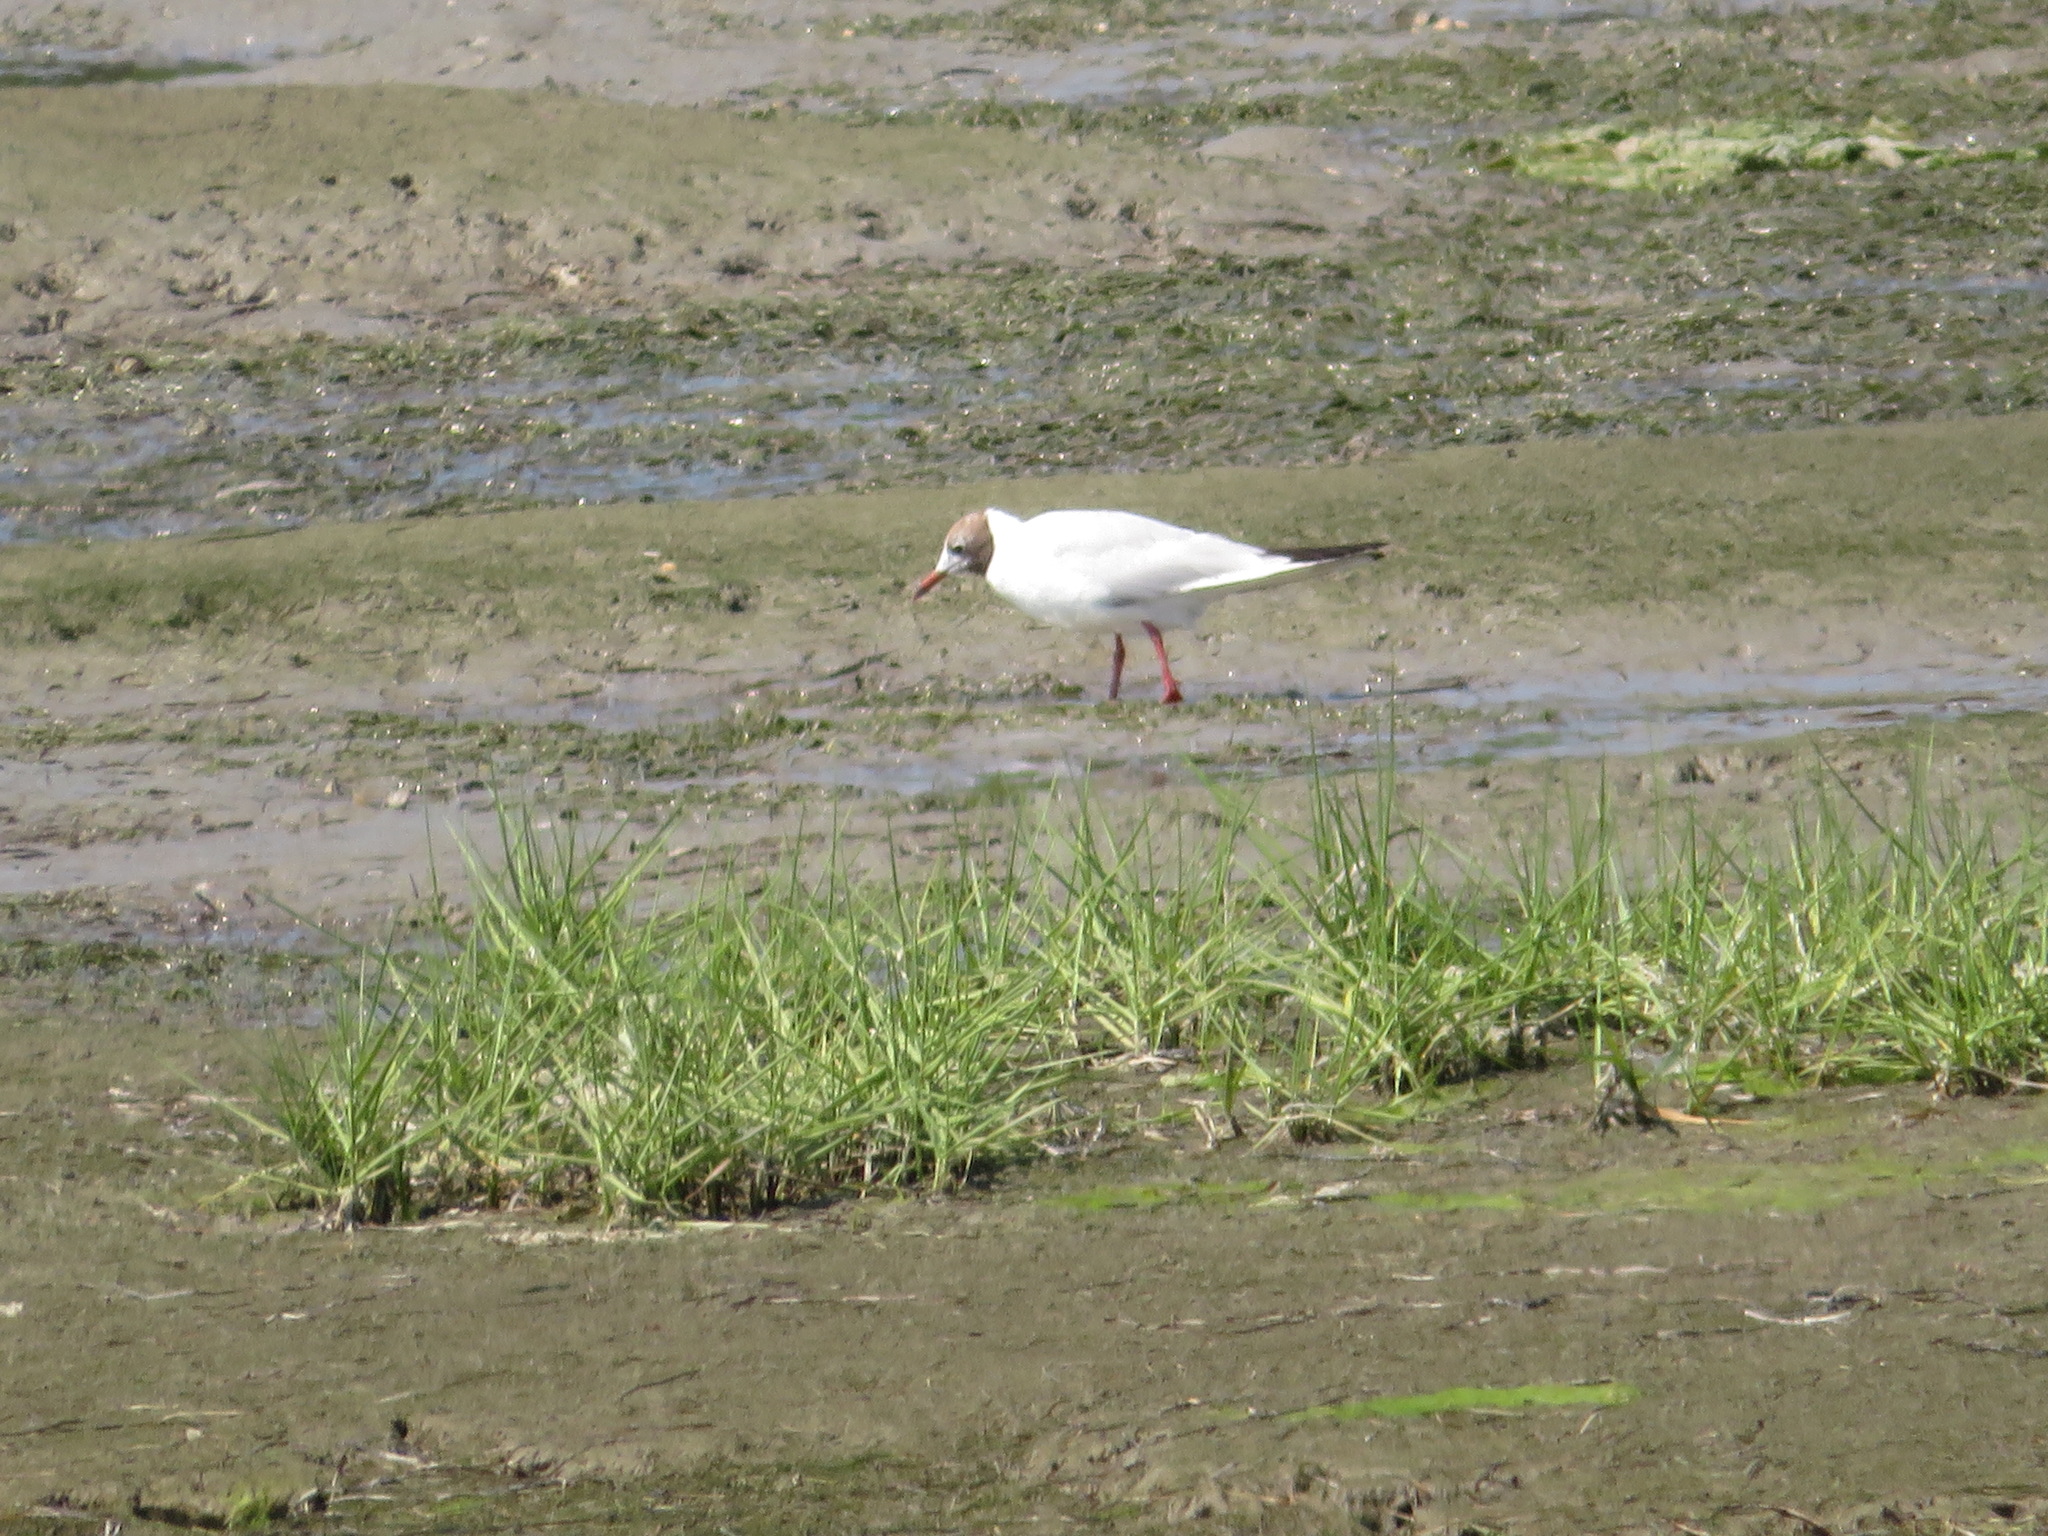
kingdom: Animalia
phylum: Chordata
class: Aves
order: Charadriiformes
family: Laridae
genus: Chroicocephalus
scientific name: Chroicocephalus ridibundus
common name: Black-headed gull
